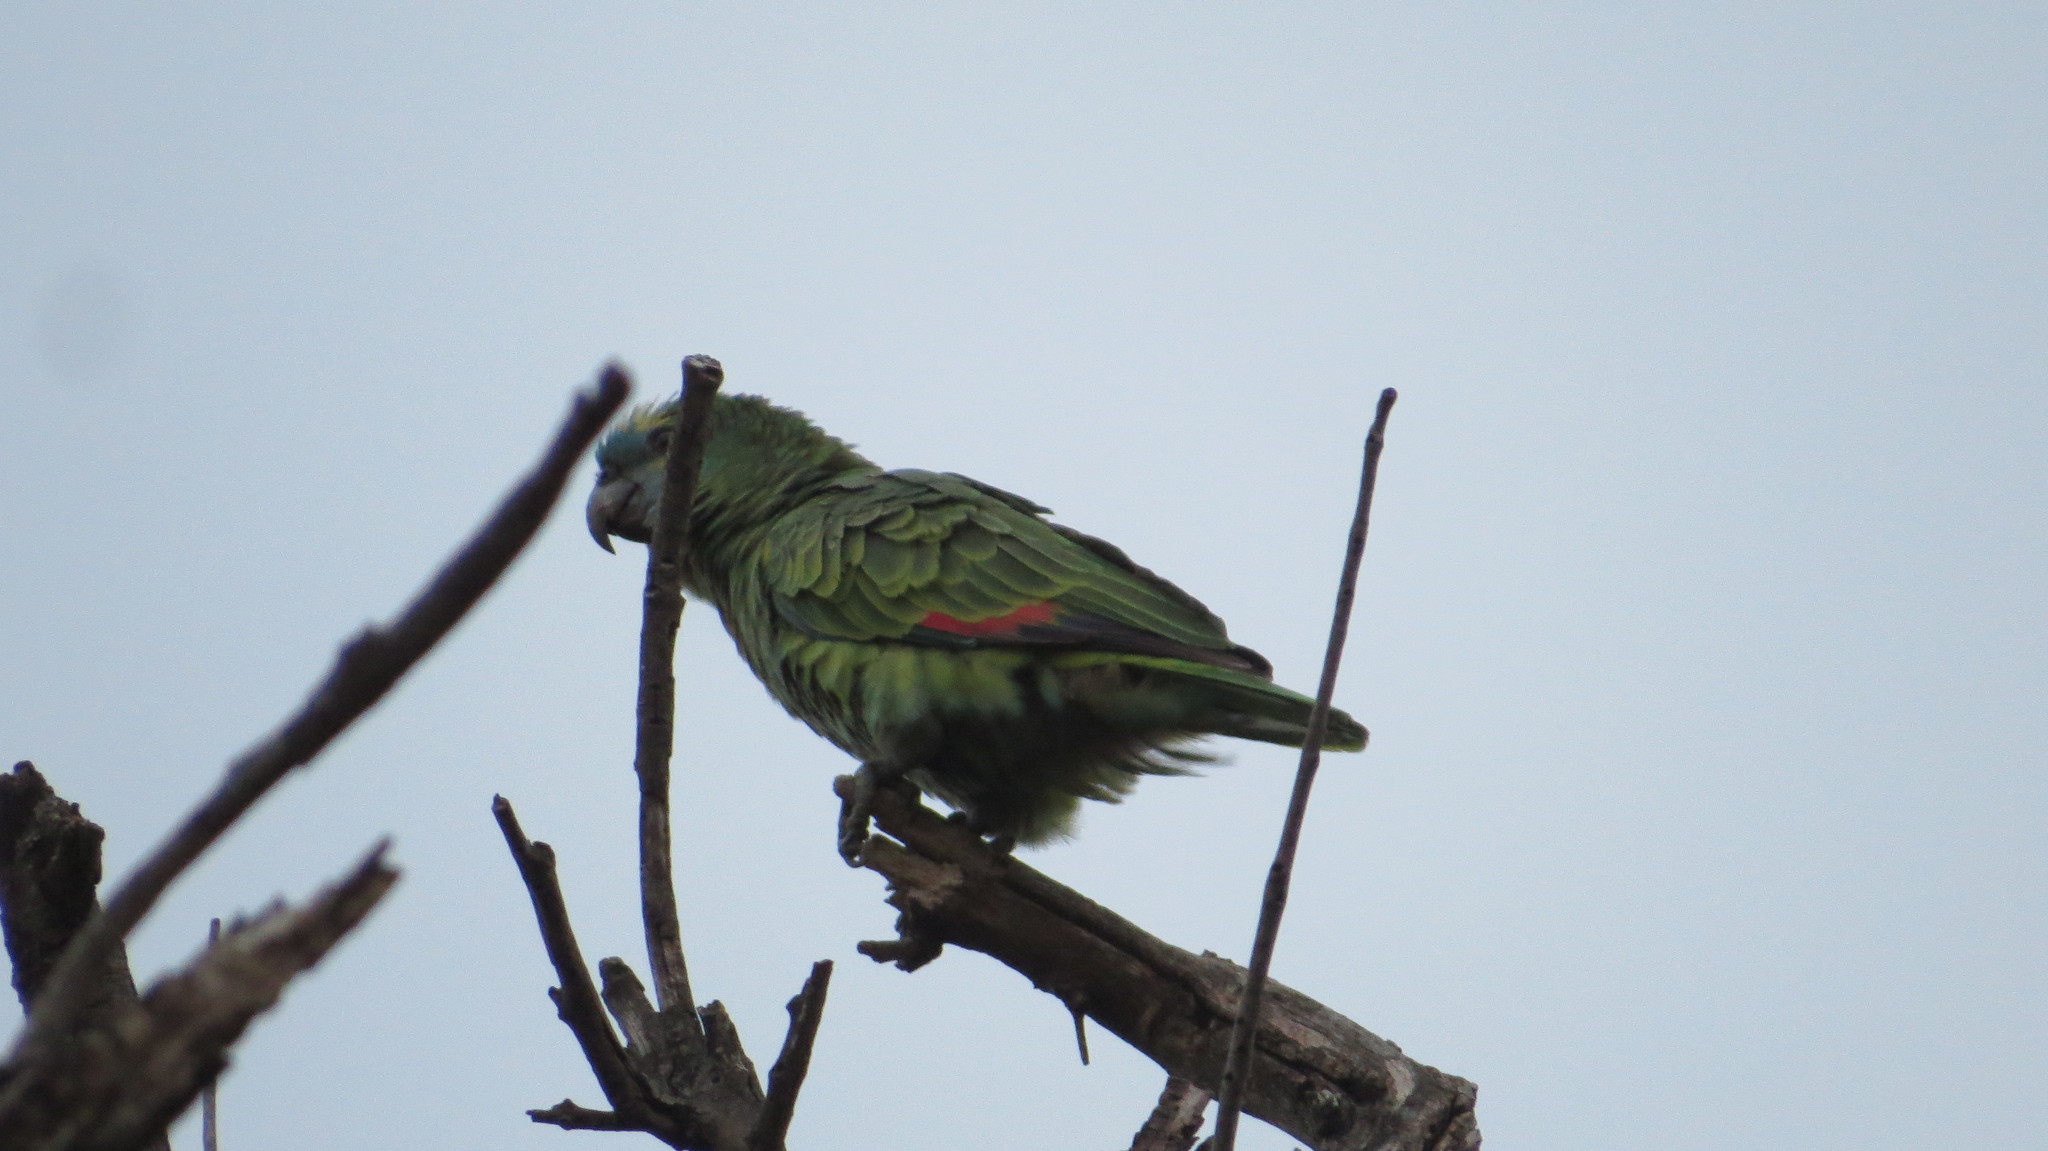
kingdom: Animalia
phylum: Chordata
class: Aves
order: Psittaciformes
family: Psittacidae
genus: Amazona
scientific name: Amazona aestiva
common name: Turquoise-fronted amazon
